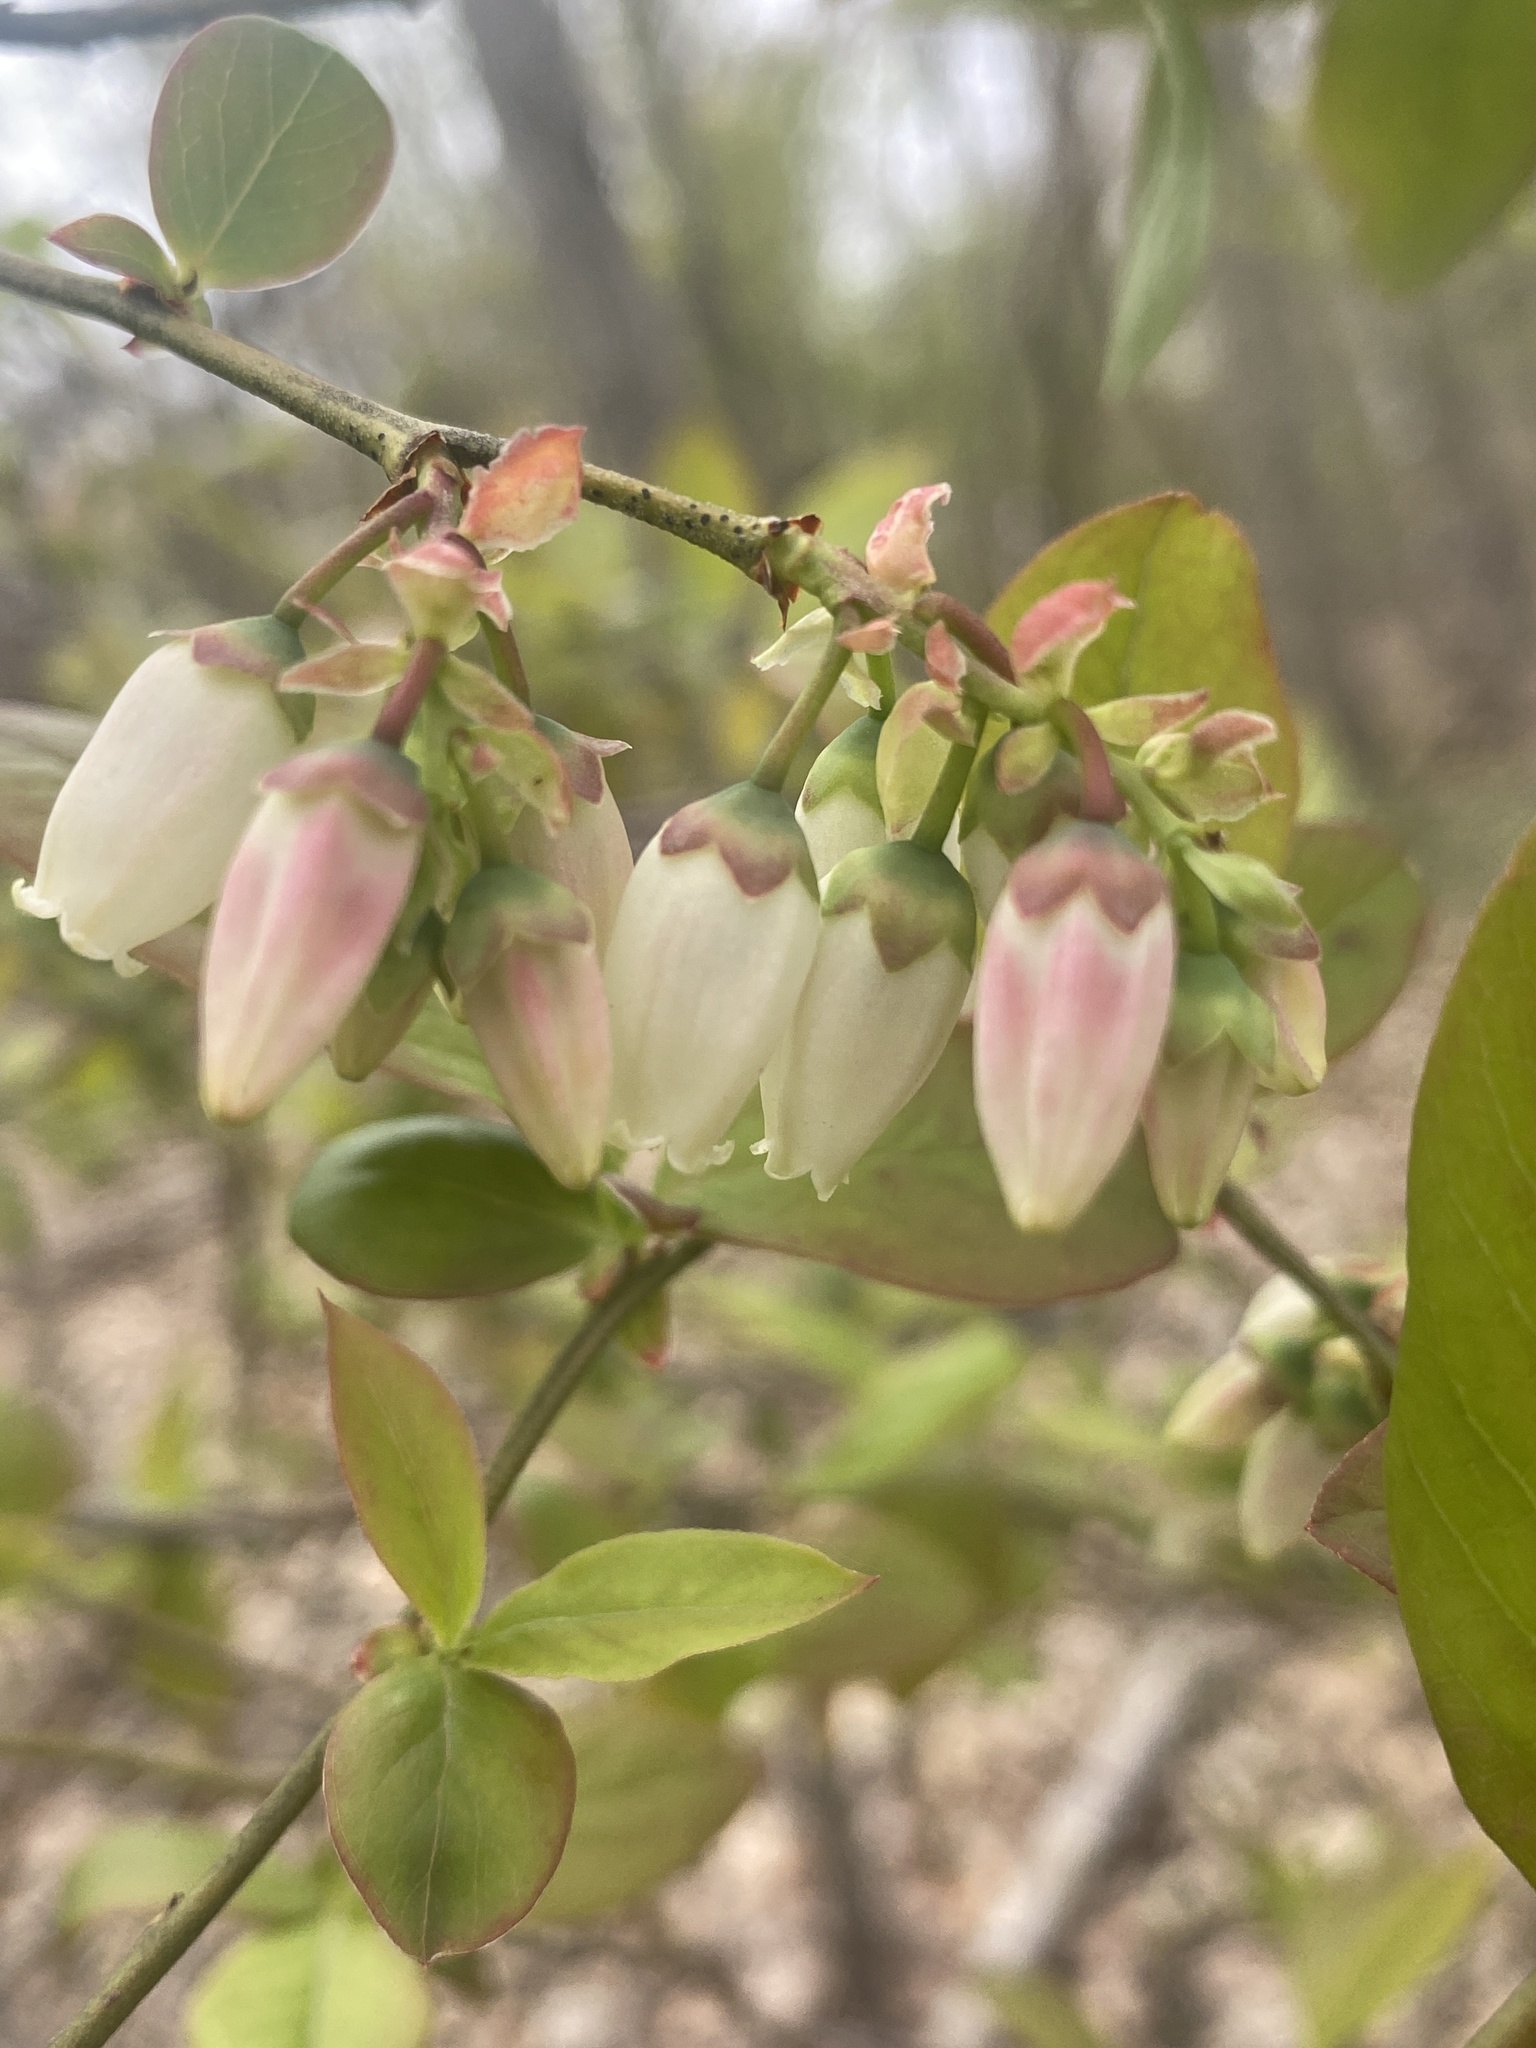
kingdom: Plantae
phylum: Tracheophyta
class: Magnoliopsida
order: Ericales
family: Ericaceae
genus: Vaccinium
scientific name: Vaccinium corymbosum
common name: Blueberry
